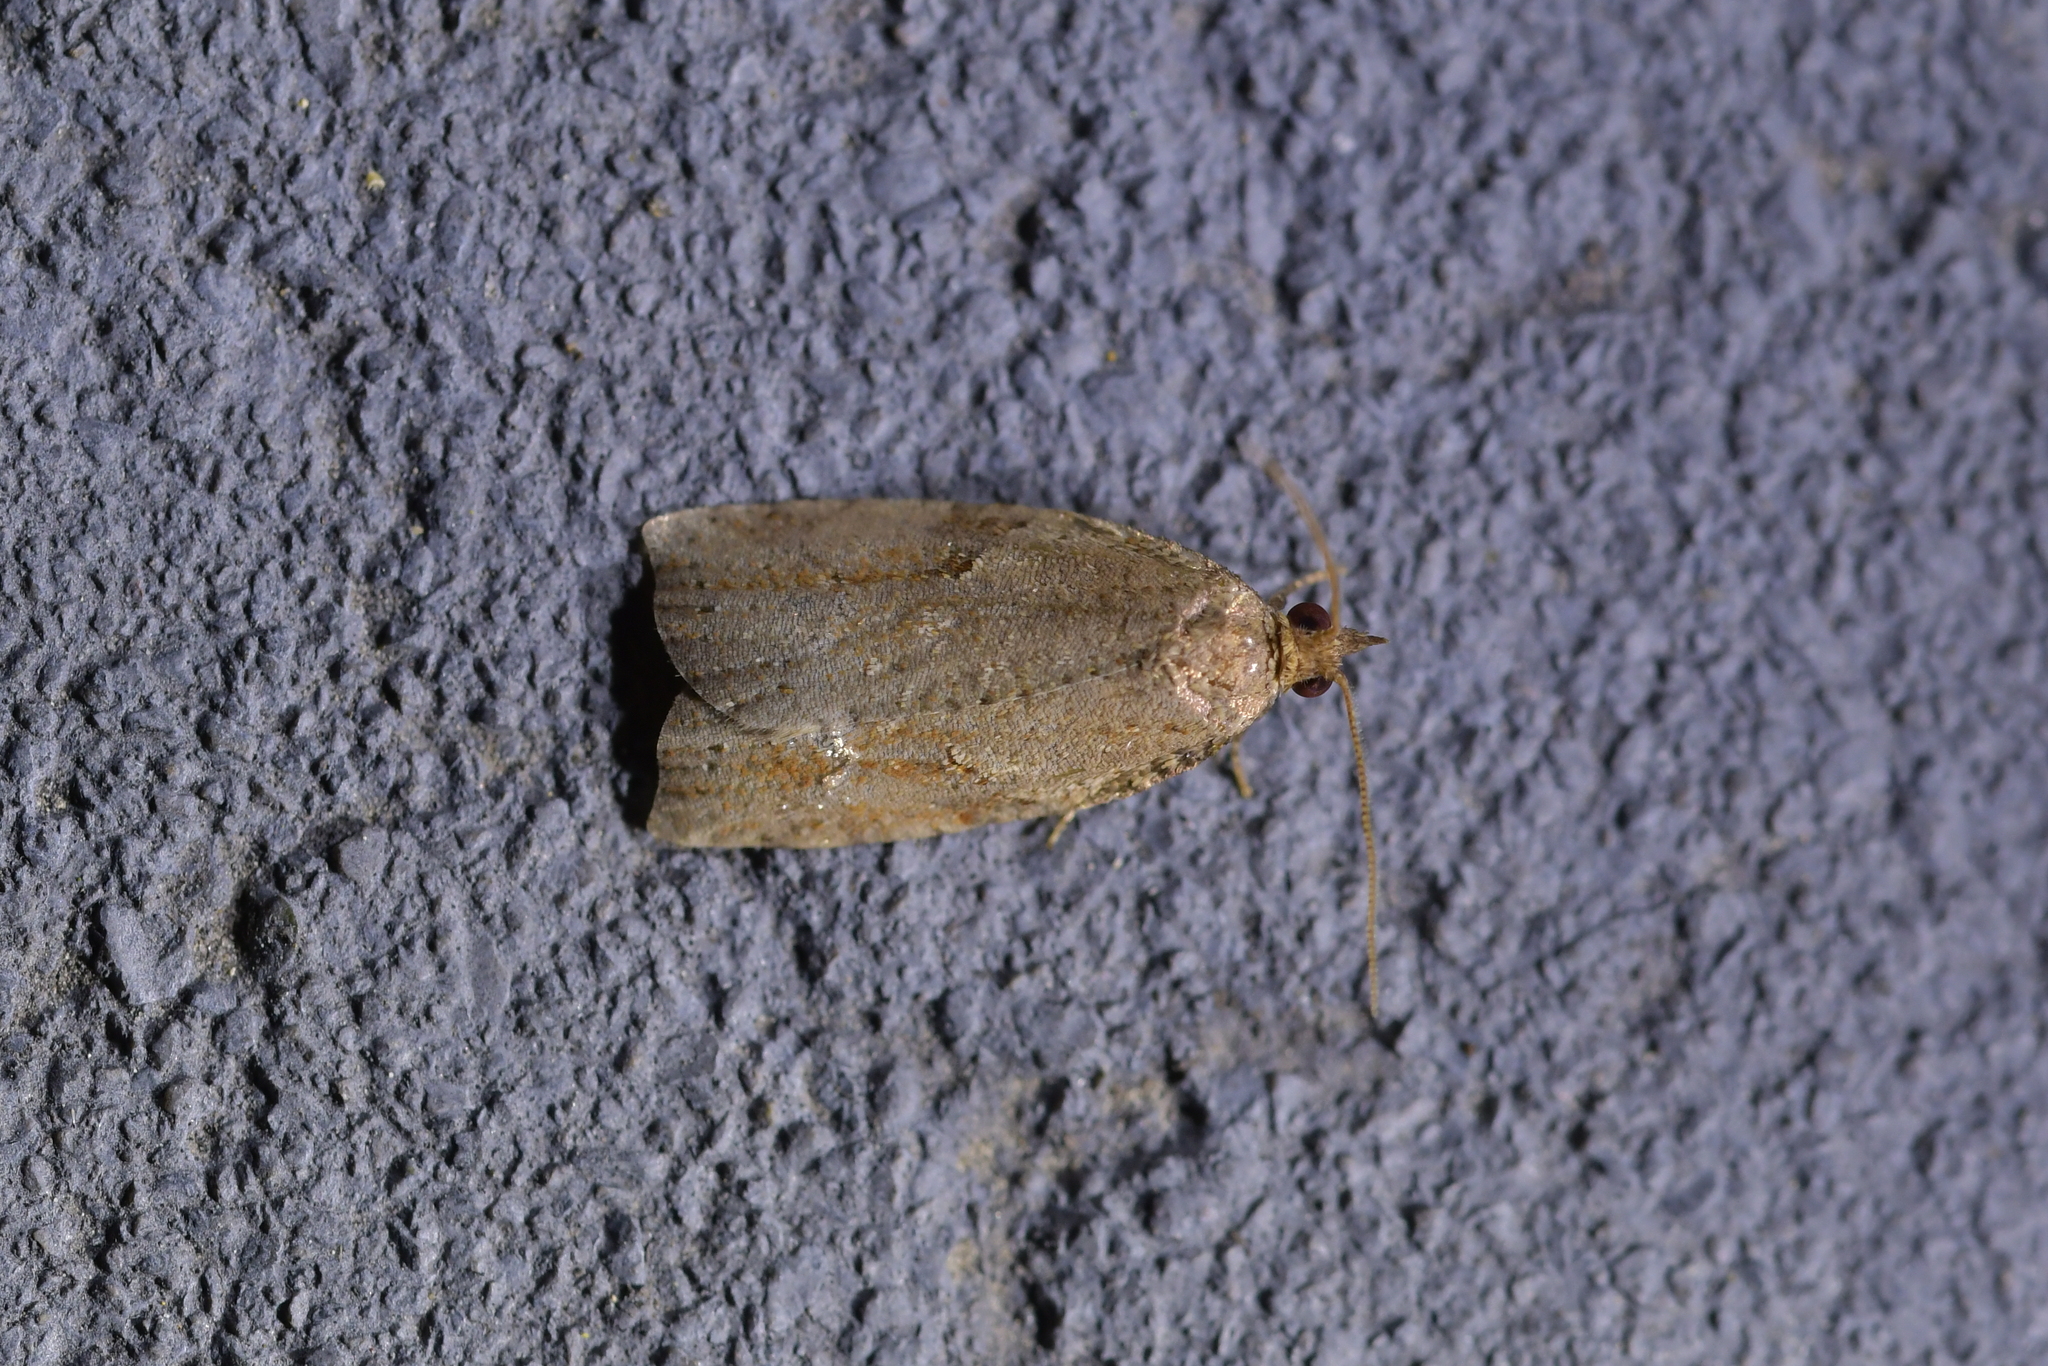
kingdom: Animalia
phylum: Arthropoda
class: Insecta
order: Lepidoptera
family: Tortricidae
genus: Apoctena
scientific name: Apoctena orthropis
